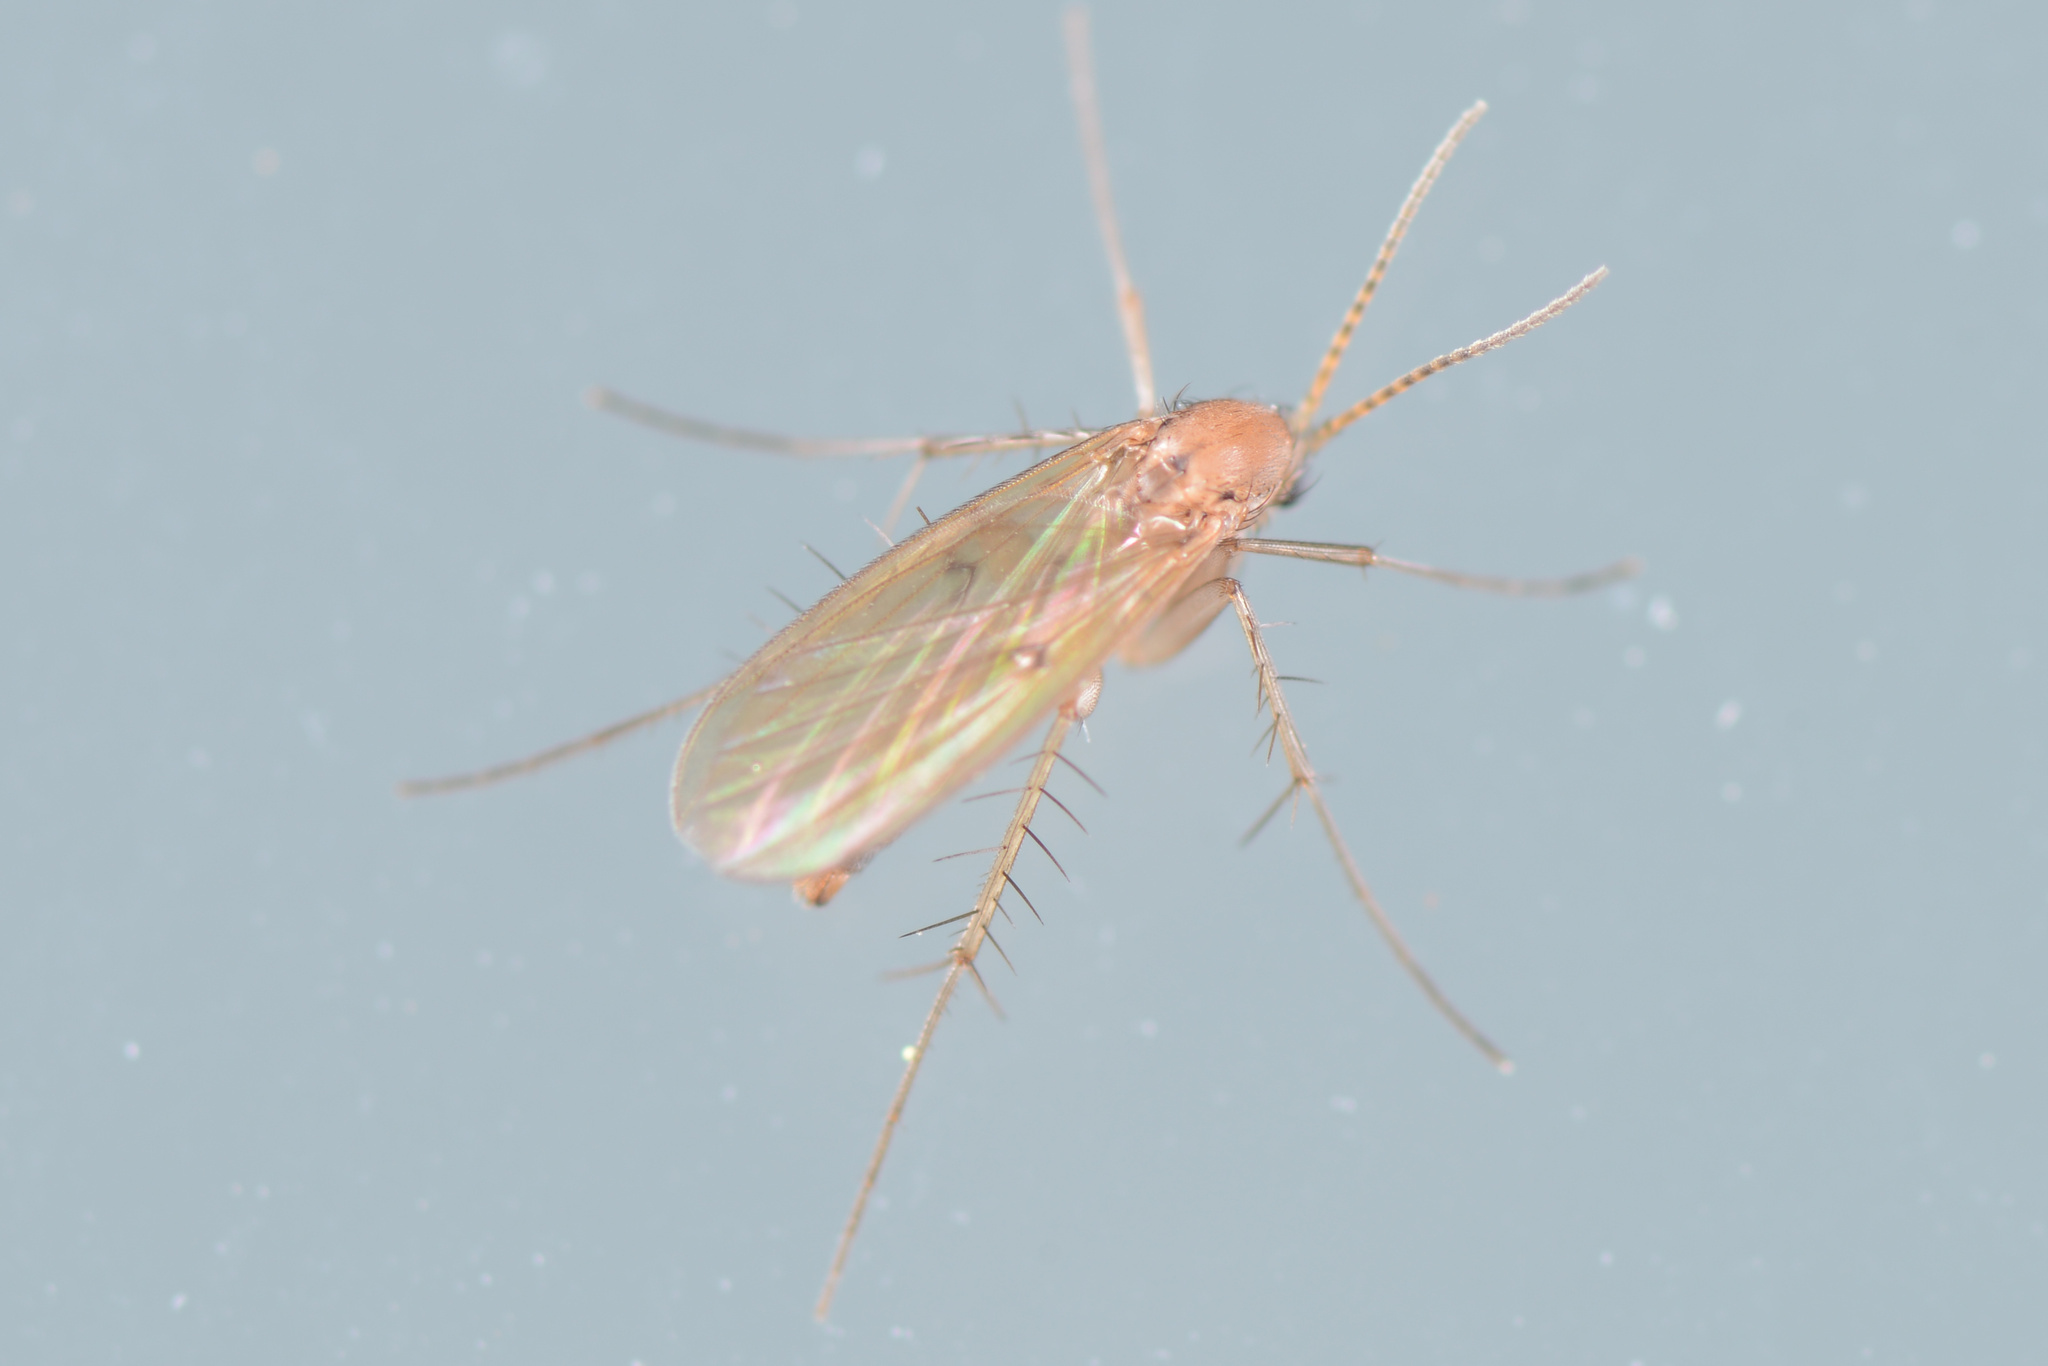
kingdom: Animalia
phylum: Arthropoda
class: Insecta
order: Diptera
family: Mycetophilidae
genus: Mycetophila
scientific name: Mycetophila fagi
